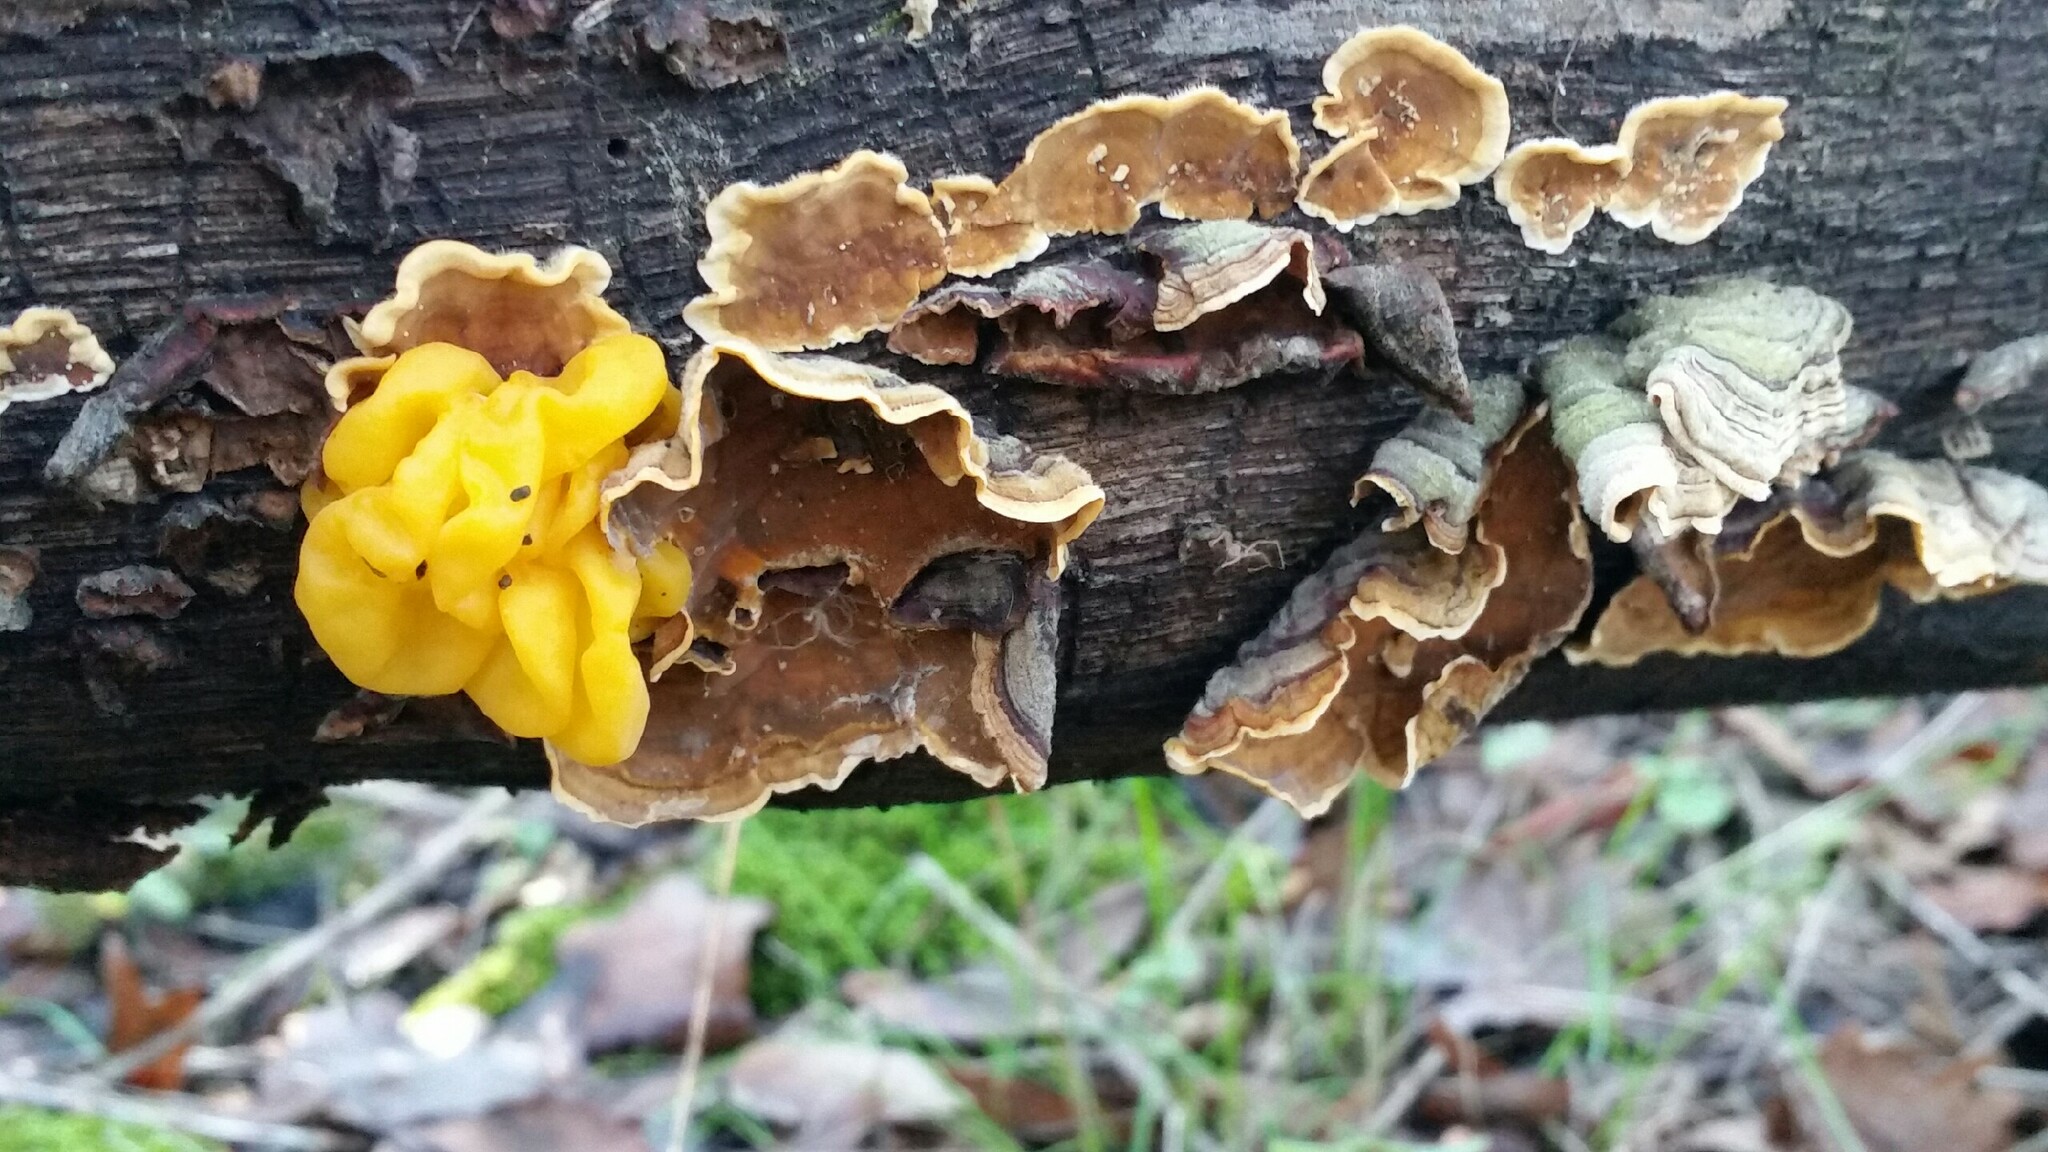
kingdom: Fungi
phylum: Basidiomycota
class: Tremellomycetes
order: Tremellales
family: Naemateliaceae
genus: Naematelia
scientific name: Naematelia aurantia
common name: Golden ear
